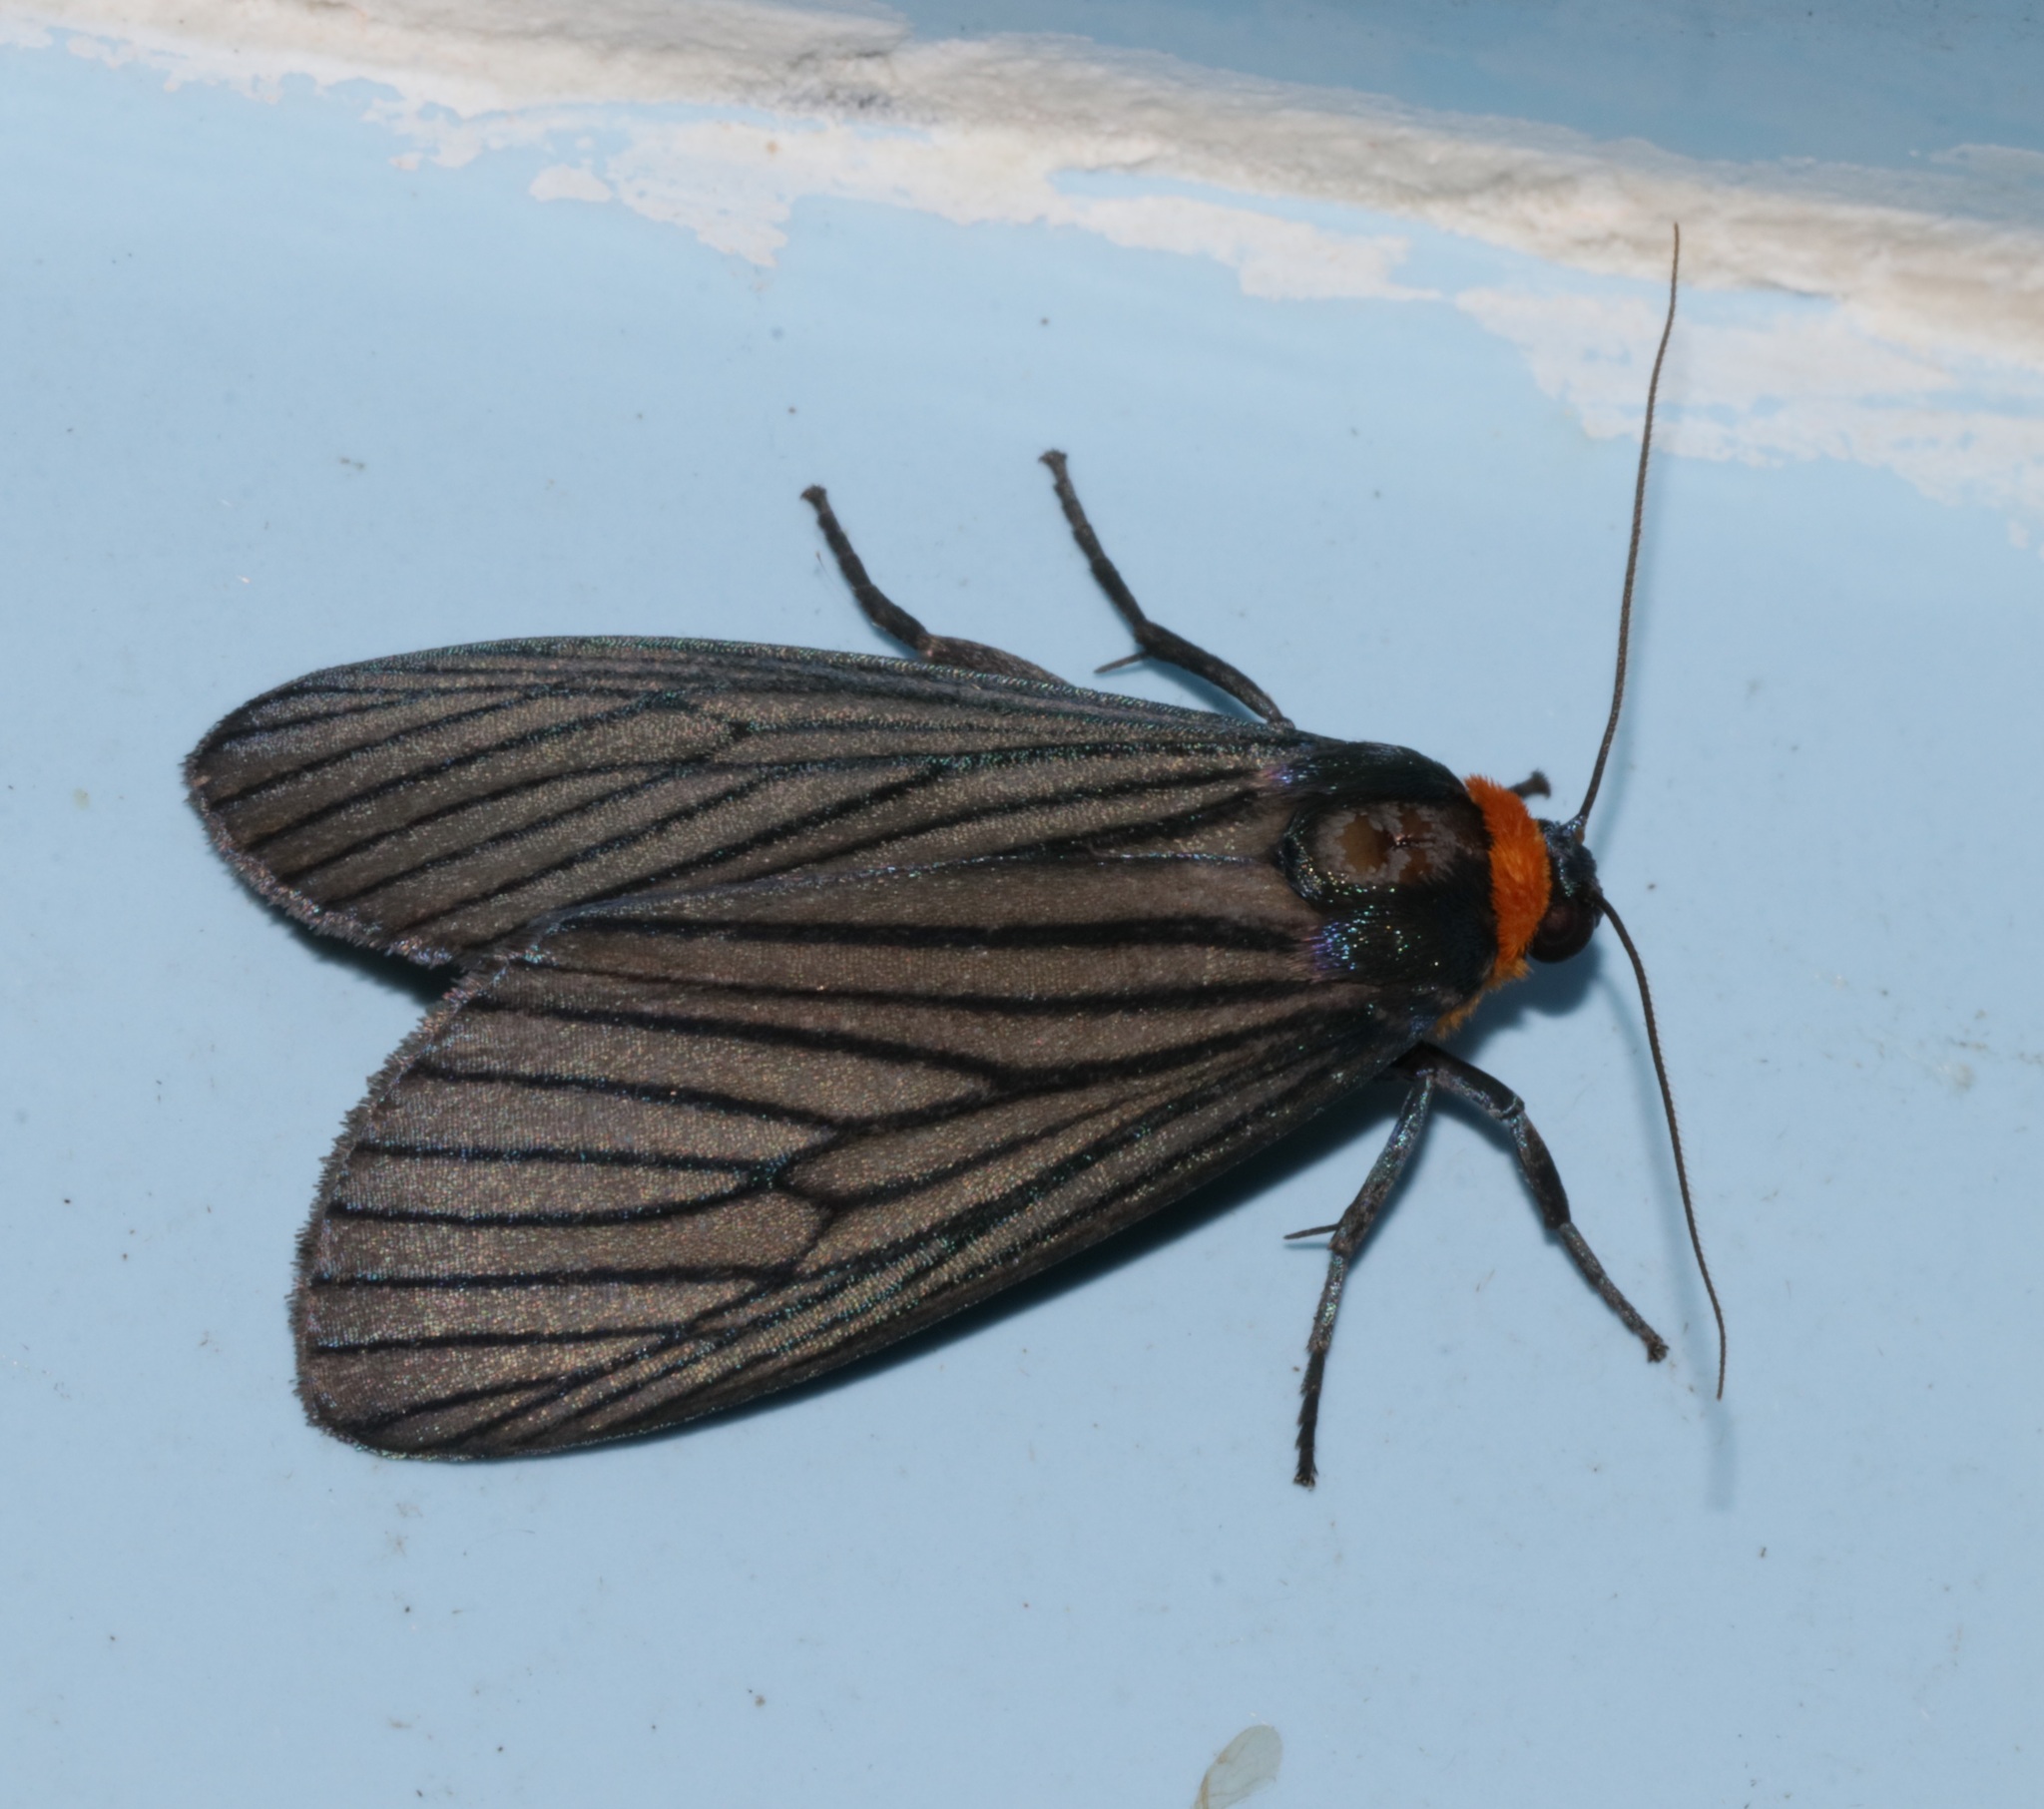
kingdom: Animalia
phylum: Arthropoda
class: Insecta
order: Lepidoptera
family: Erebidae
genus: Macrobrochis
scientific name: Macrobrochis fukiensis
